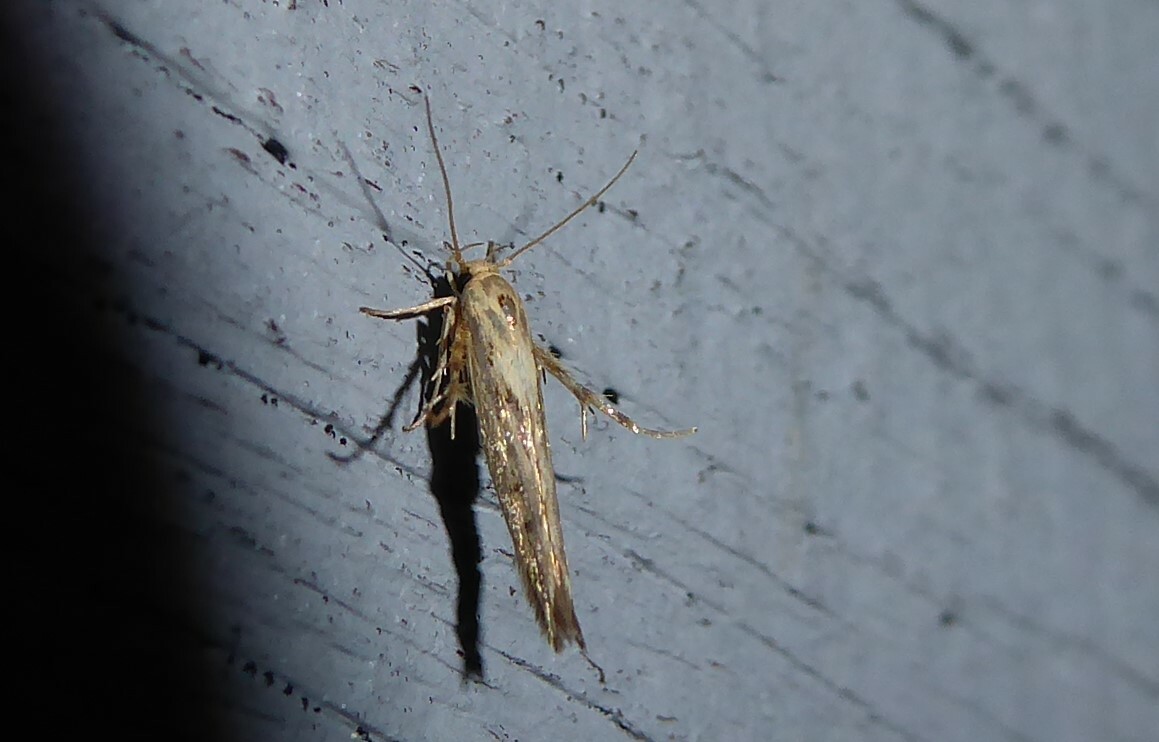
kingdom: Animalia
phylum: Arthropoda
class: Insecta
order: Lepidoptera
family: Stathmopodidae
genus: Stathmopoda
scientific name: Stathmopoda plumbiflua
